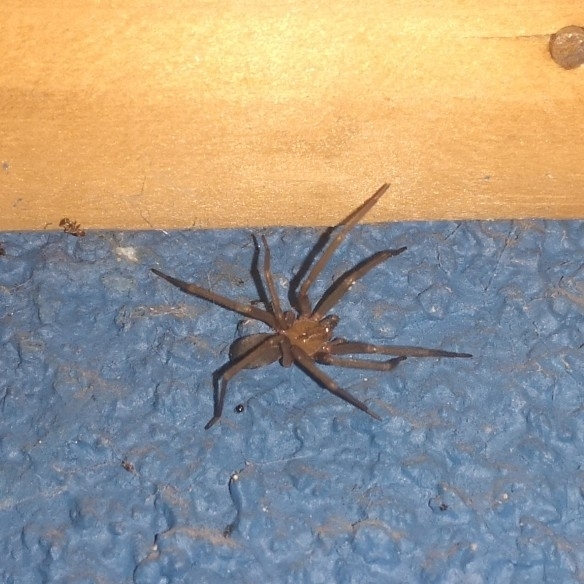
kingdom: Animalia
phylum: Arthropoda
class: Arachnida
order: Araneae
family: Sicariidae
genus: Loxosceles
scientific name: Loxosceles laeta
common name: Chilean recluse spider
